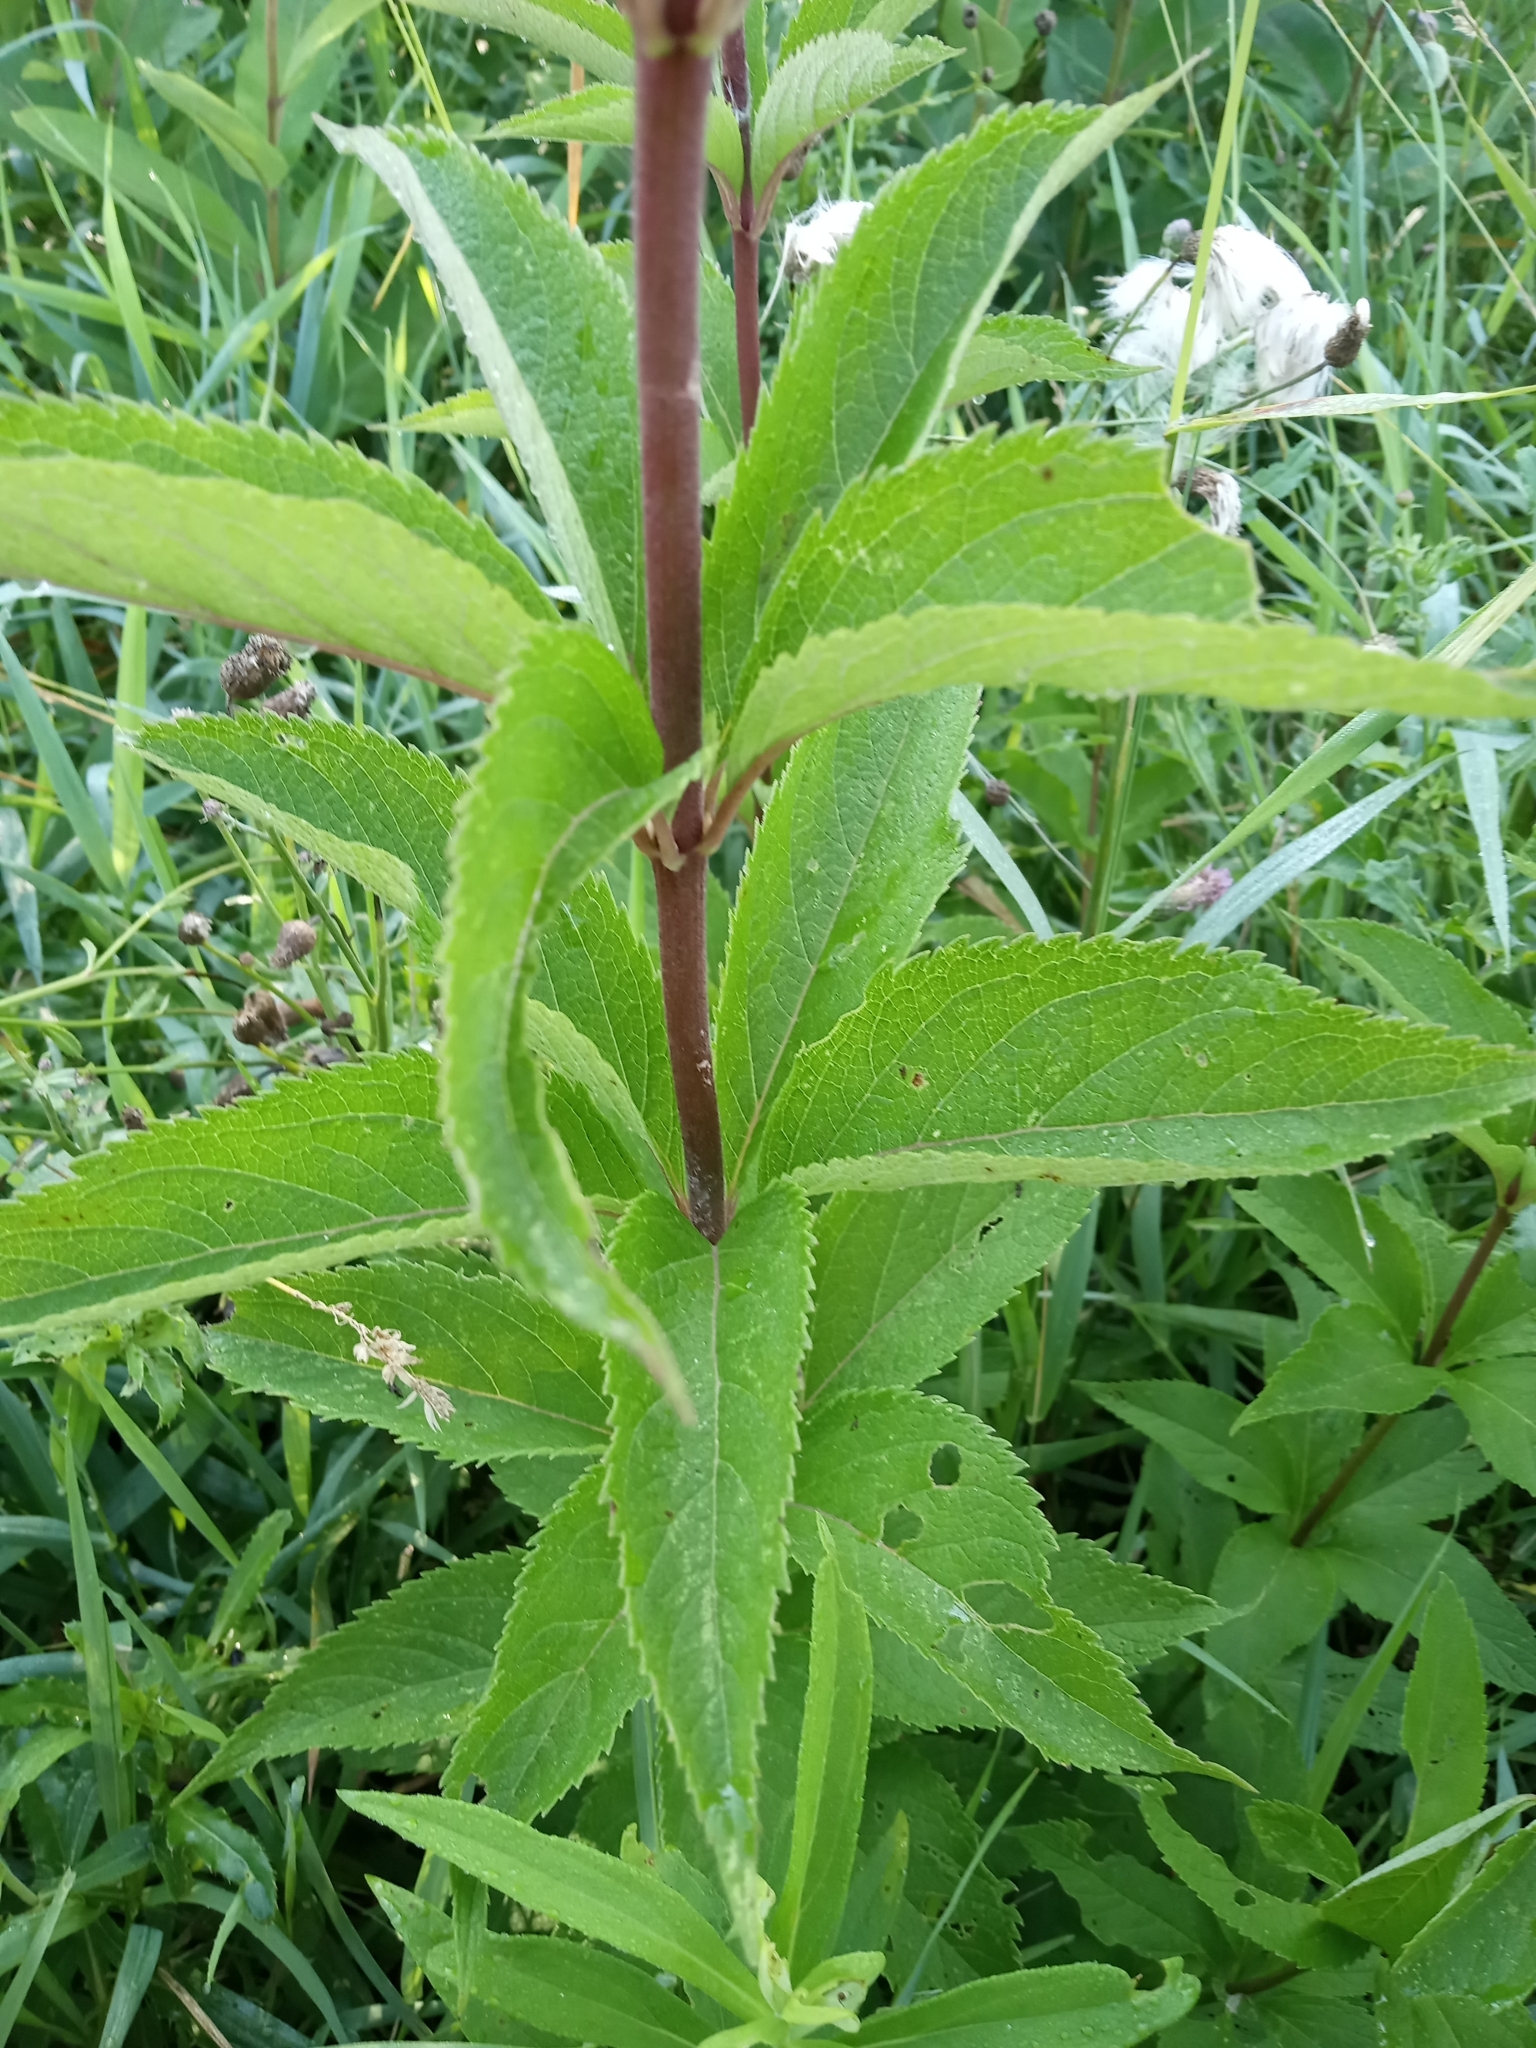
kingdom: Plantae
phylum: Tracheophyta
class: Magnoliopsida
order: Asterales
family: Asteraceae
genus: Eutrochium
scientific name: Eutrochium maculatum
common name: Spotted joe pye weed
